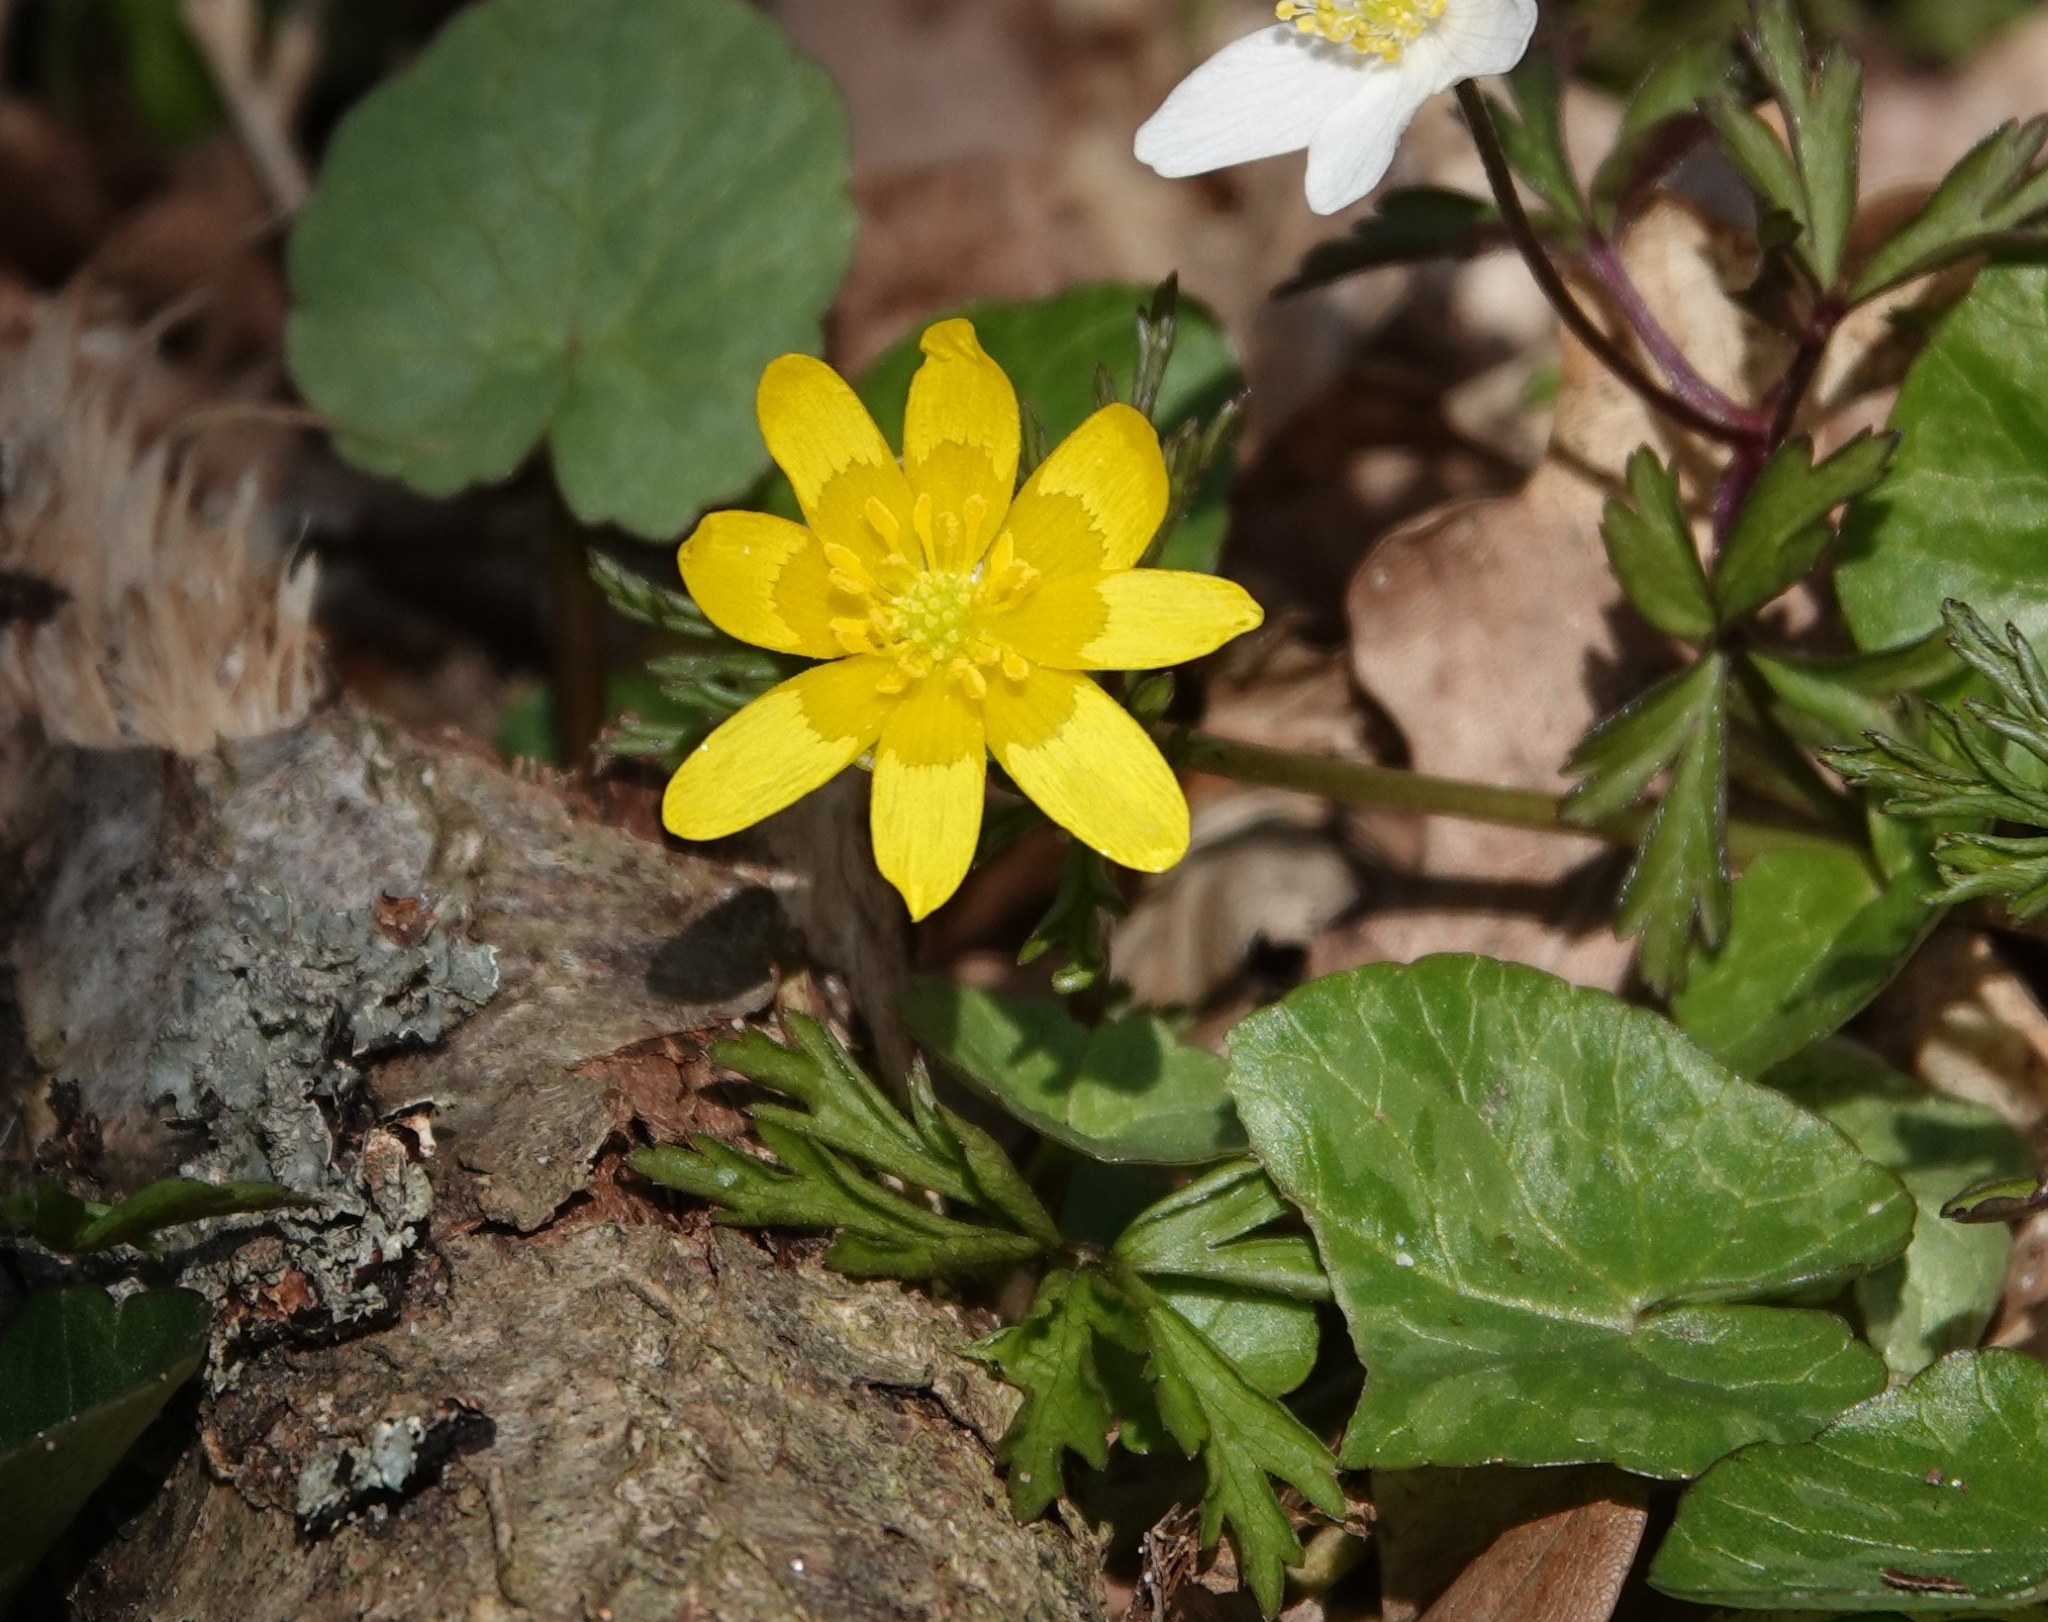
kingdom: Plantae
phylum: Tracheophyta
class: Magnoliopsida
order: Ranunculales
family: Ranunculaceae
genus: Ficaria
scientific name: Ficaria verna
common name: Lesser celandine
